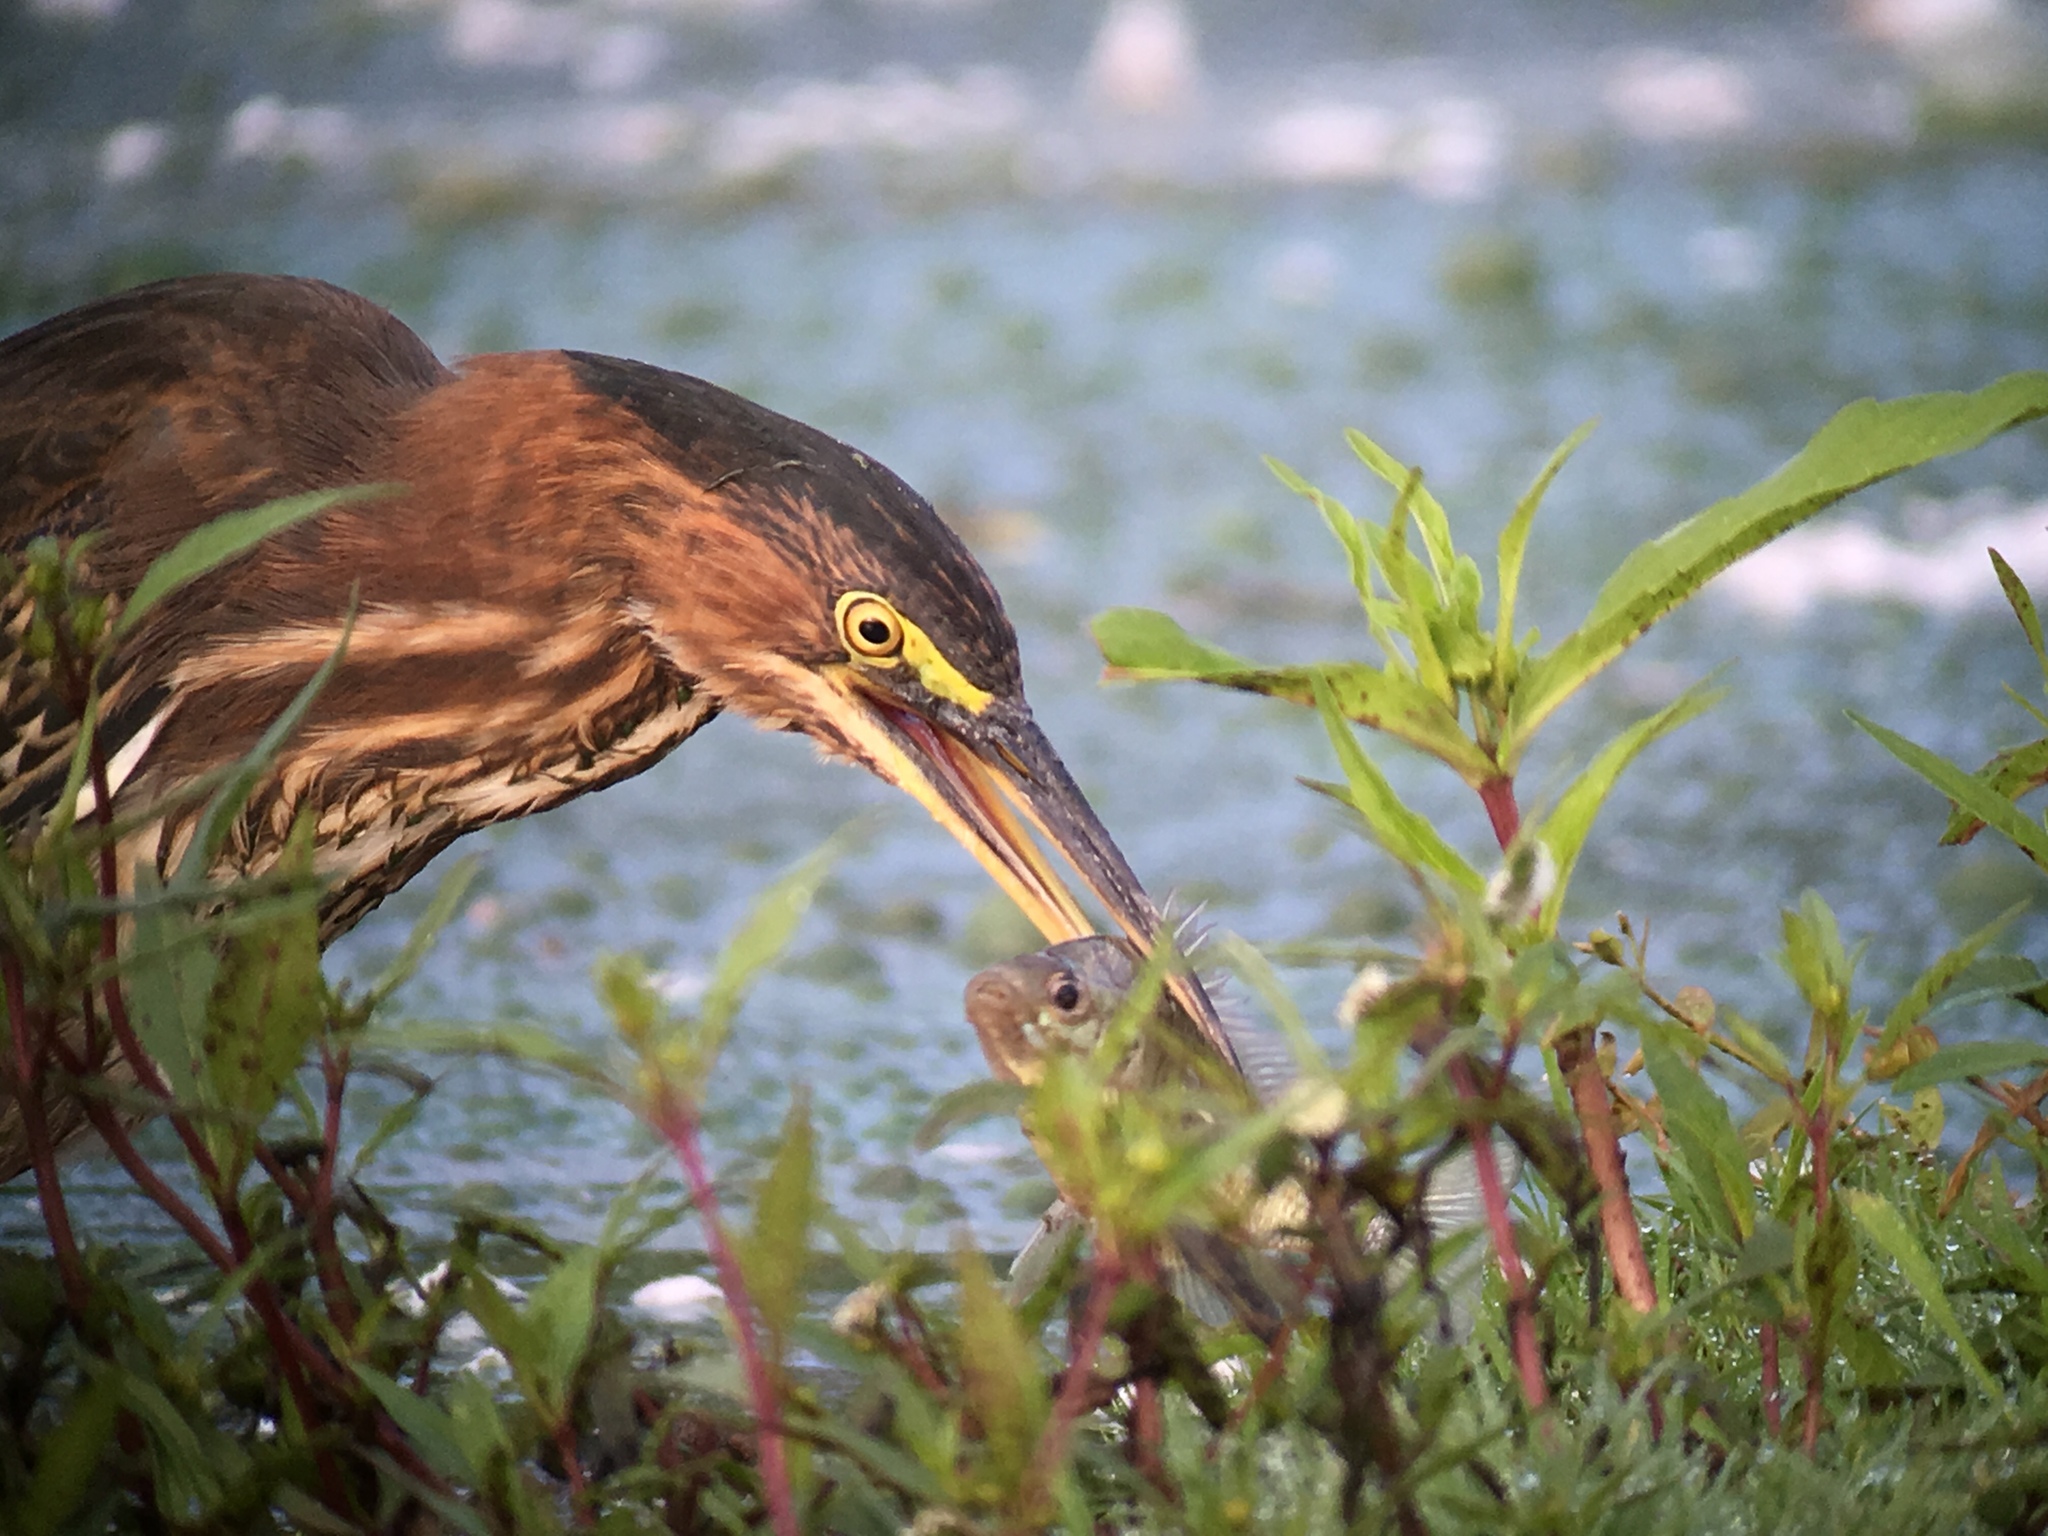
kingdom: Animalia
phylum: Chordata
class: Aves
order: Pelecaniformes
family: Ardeidae
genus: Butorides
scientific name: Butorides virescens
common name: Green heron
